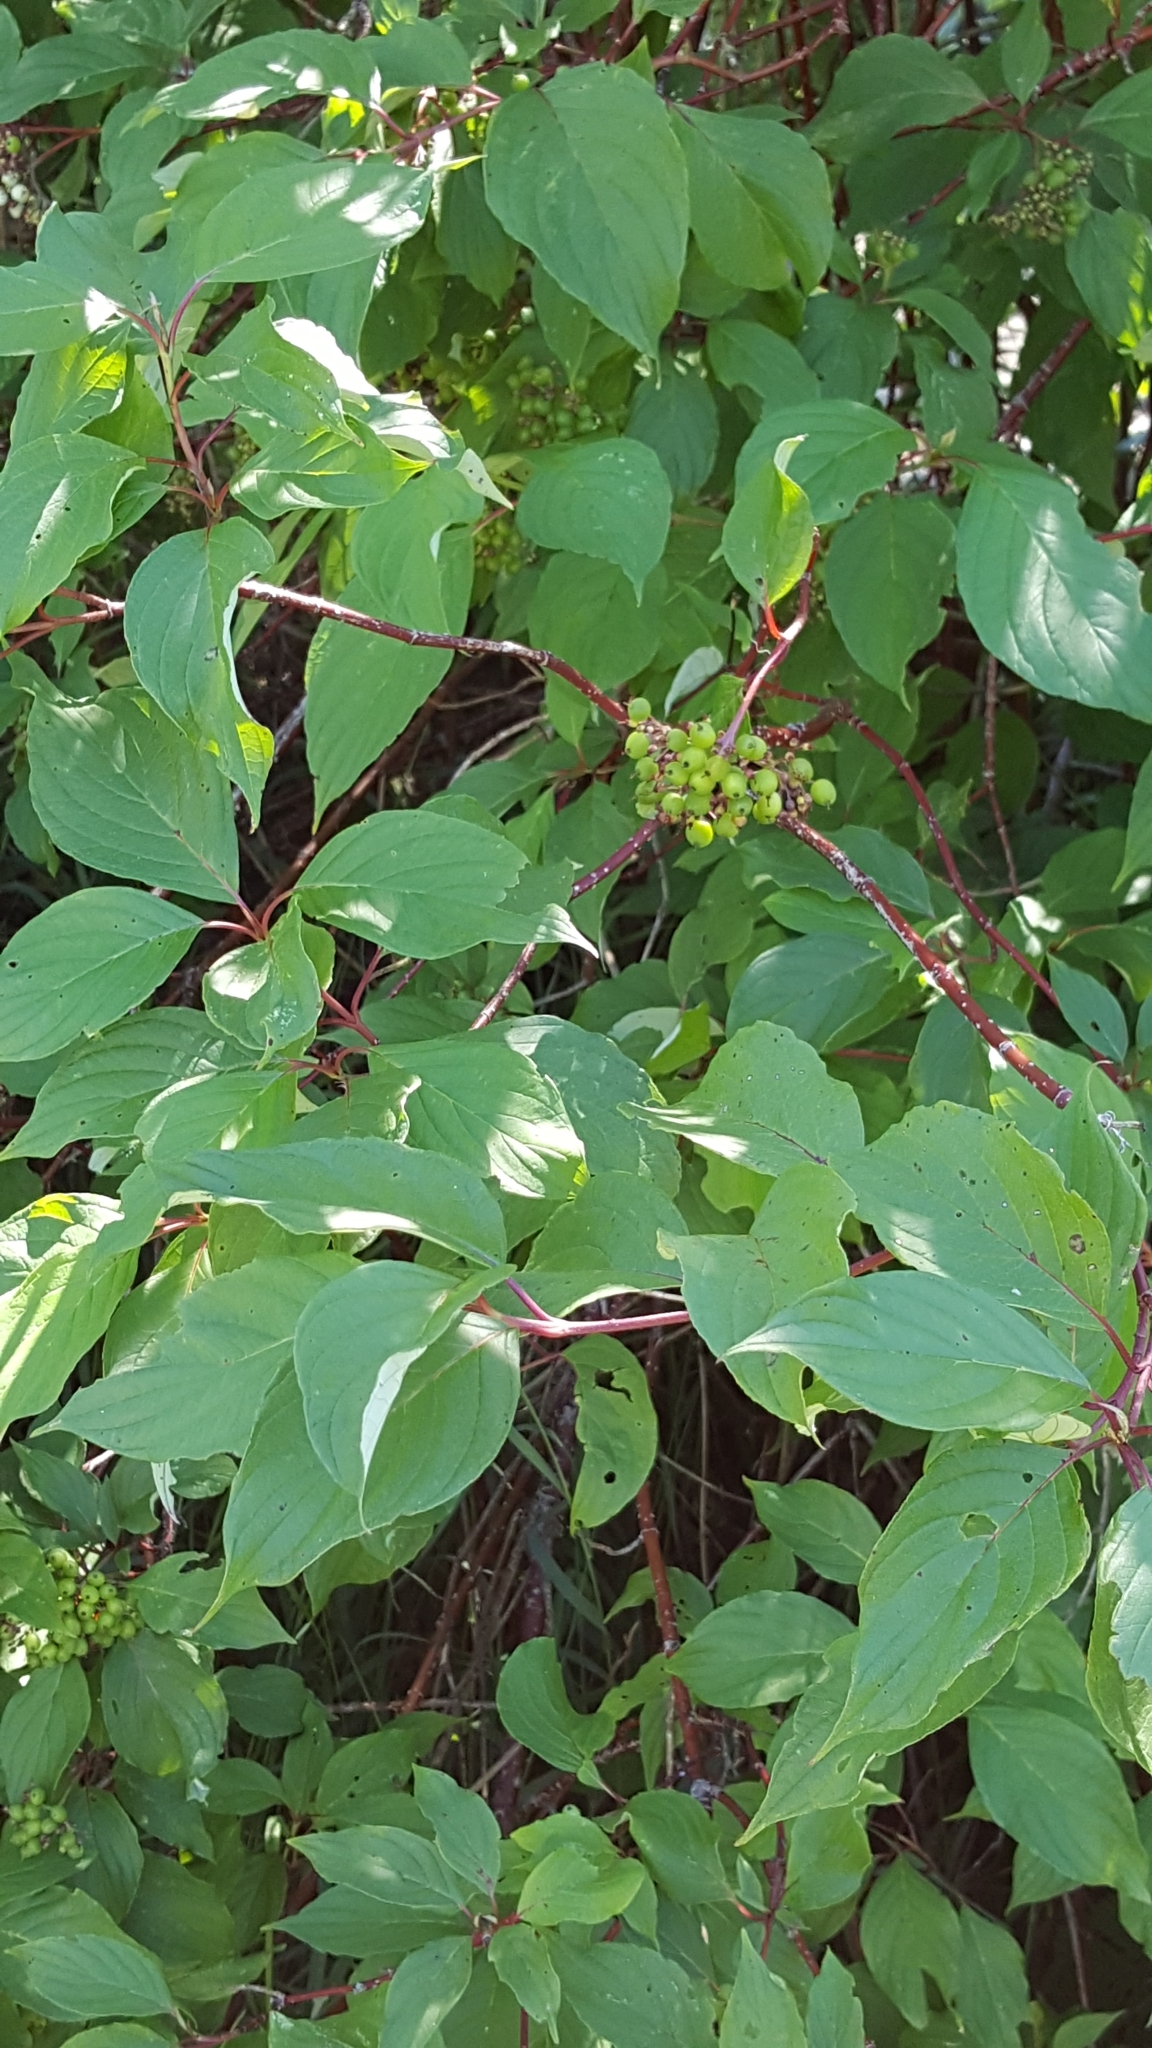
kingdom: Plantae
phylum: Tracheophyta
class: Magnoliopsida
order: Cornales
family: Cornaceae
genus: Cornus
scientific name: Cornus sericea
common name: Red-osier dogwood
